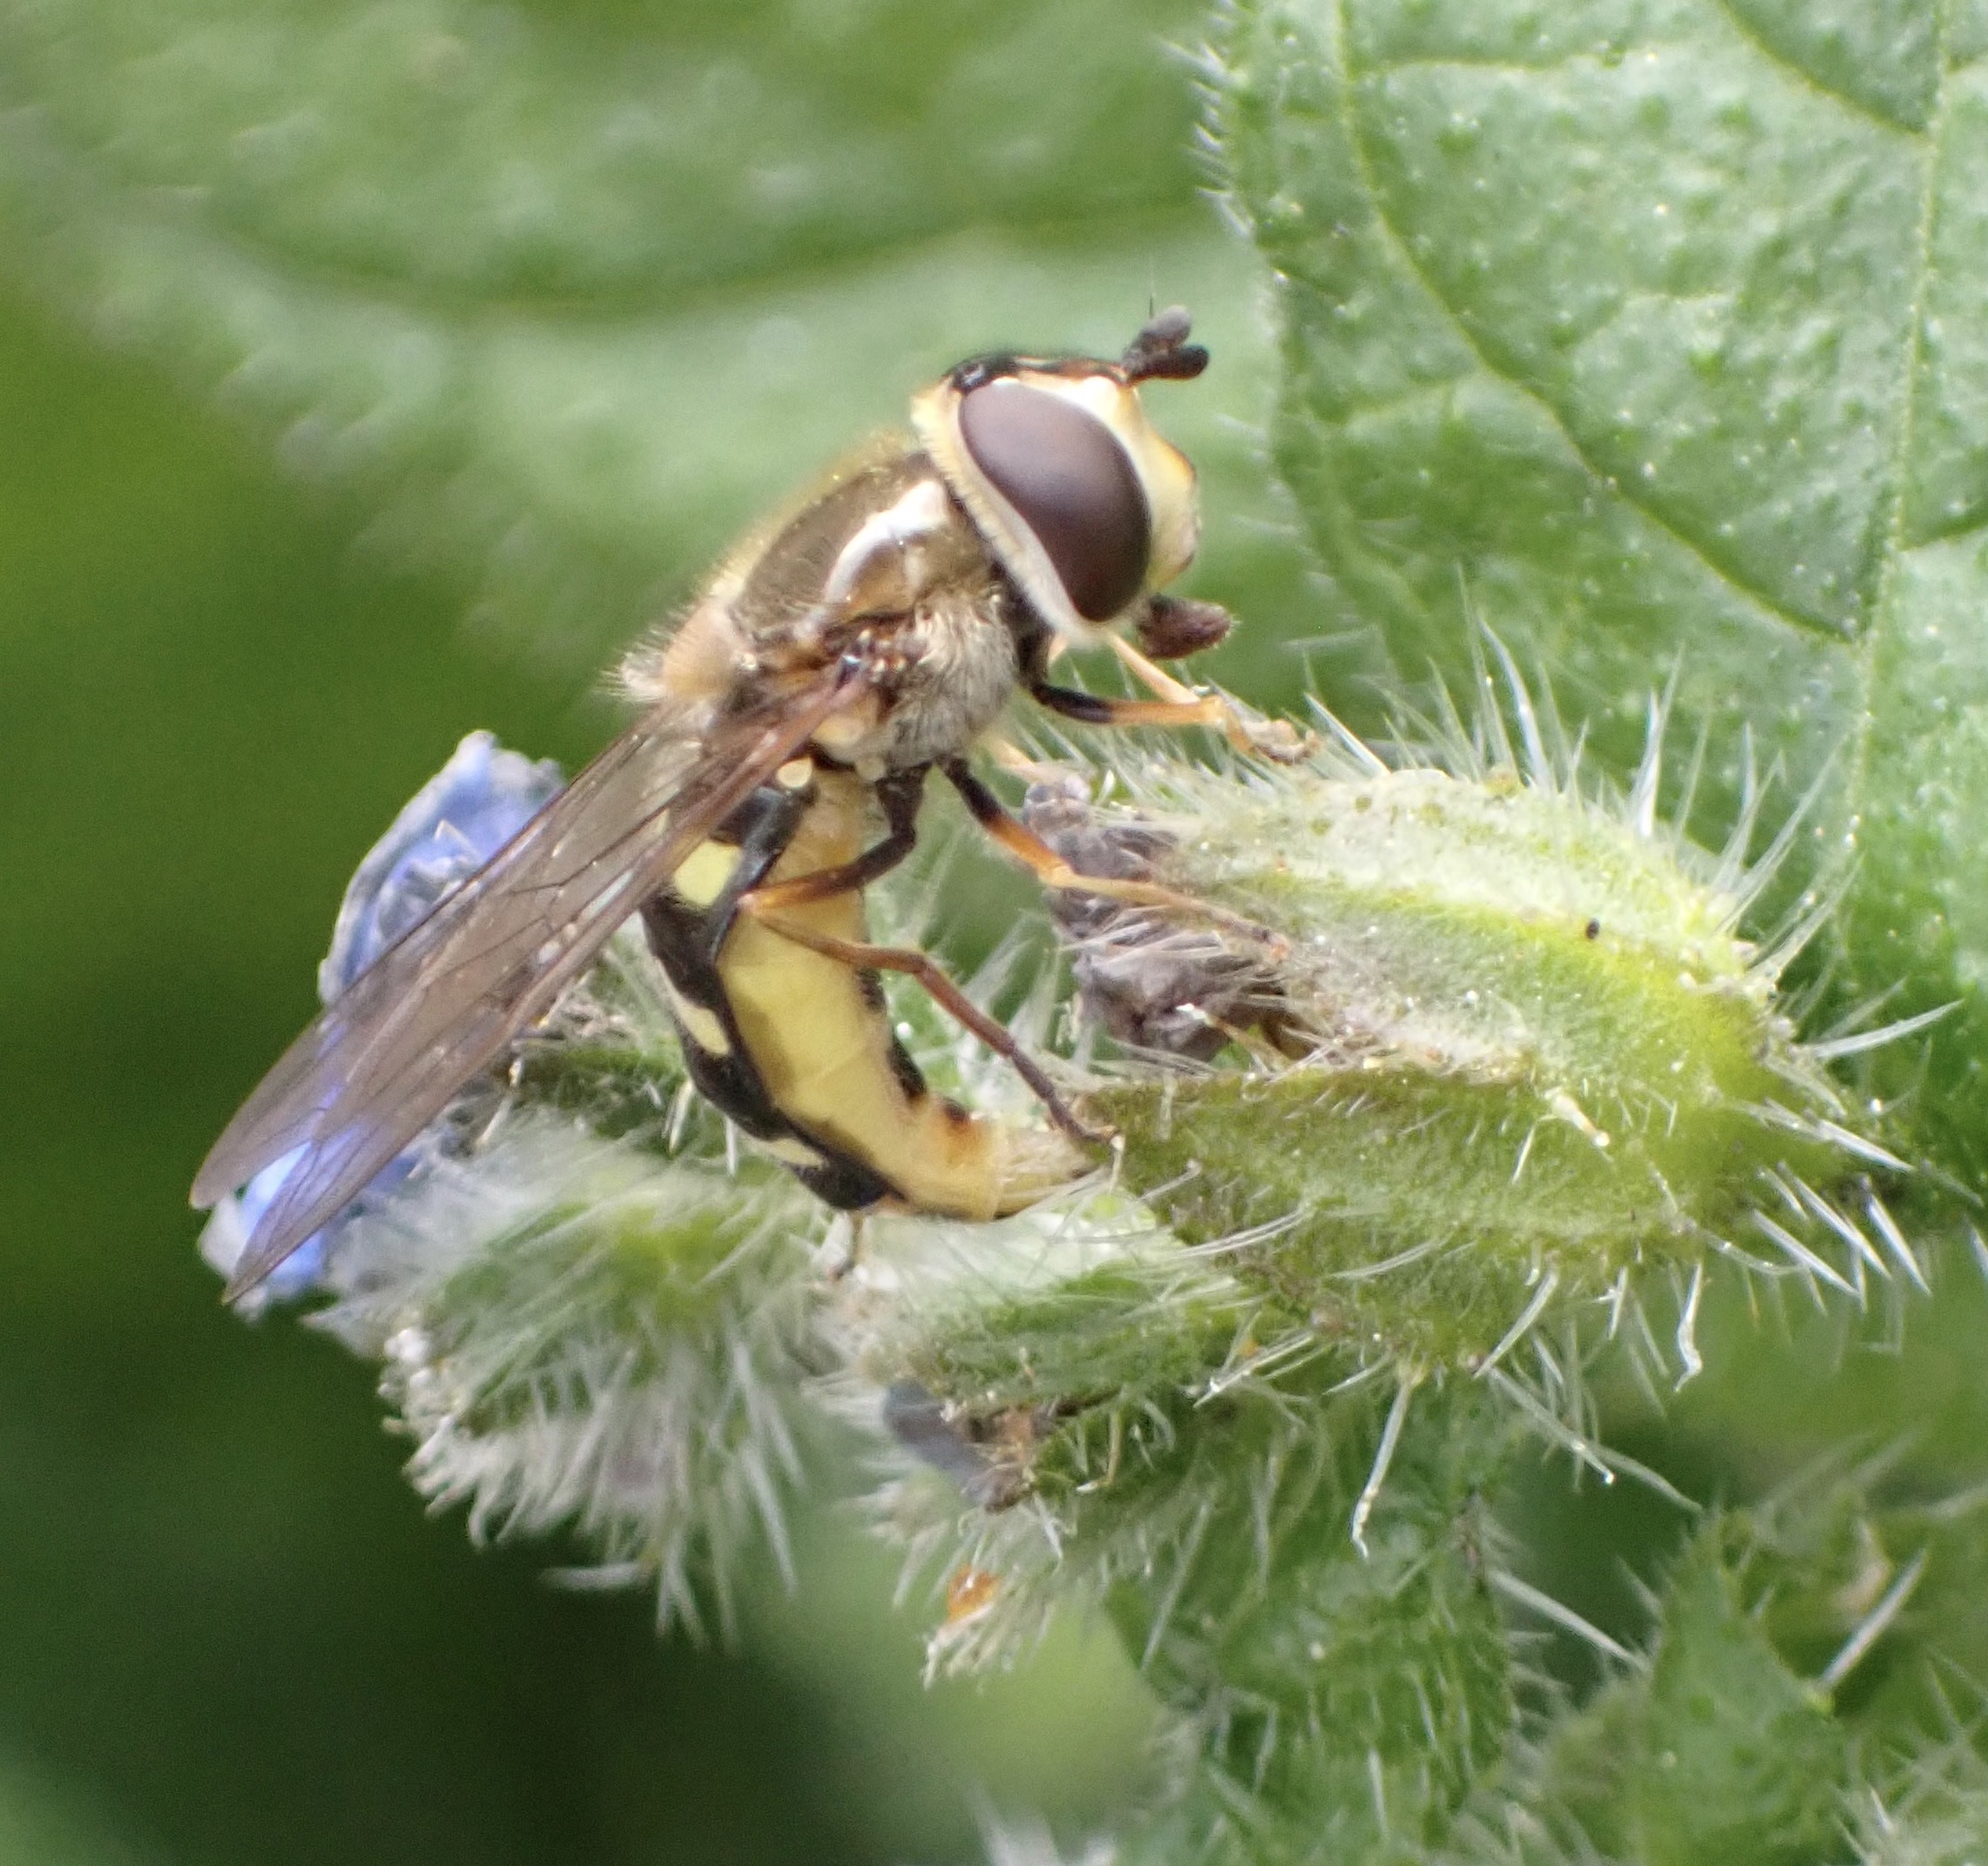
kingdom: Animalia
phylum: Arthropoda
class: Insecta
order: Diptera
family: Syrphidae
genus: Eupeodes
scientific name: Eupeodes
